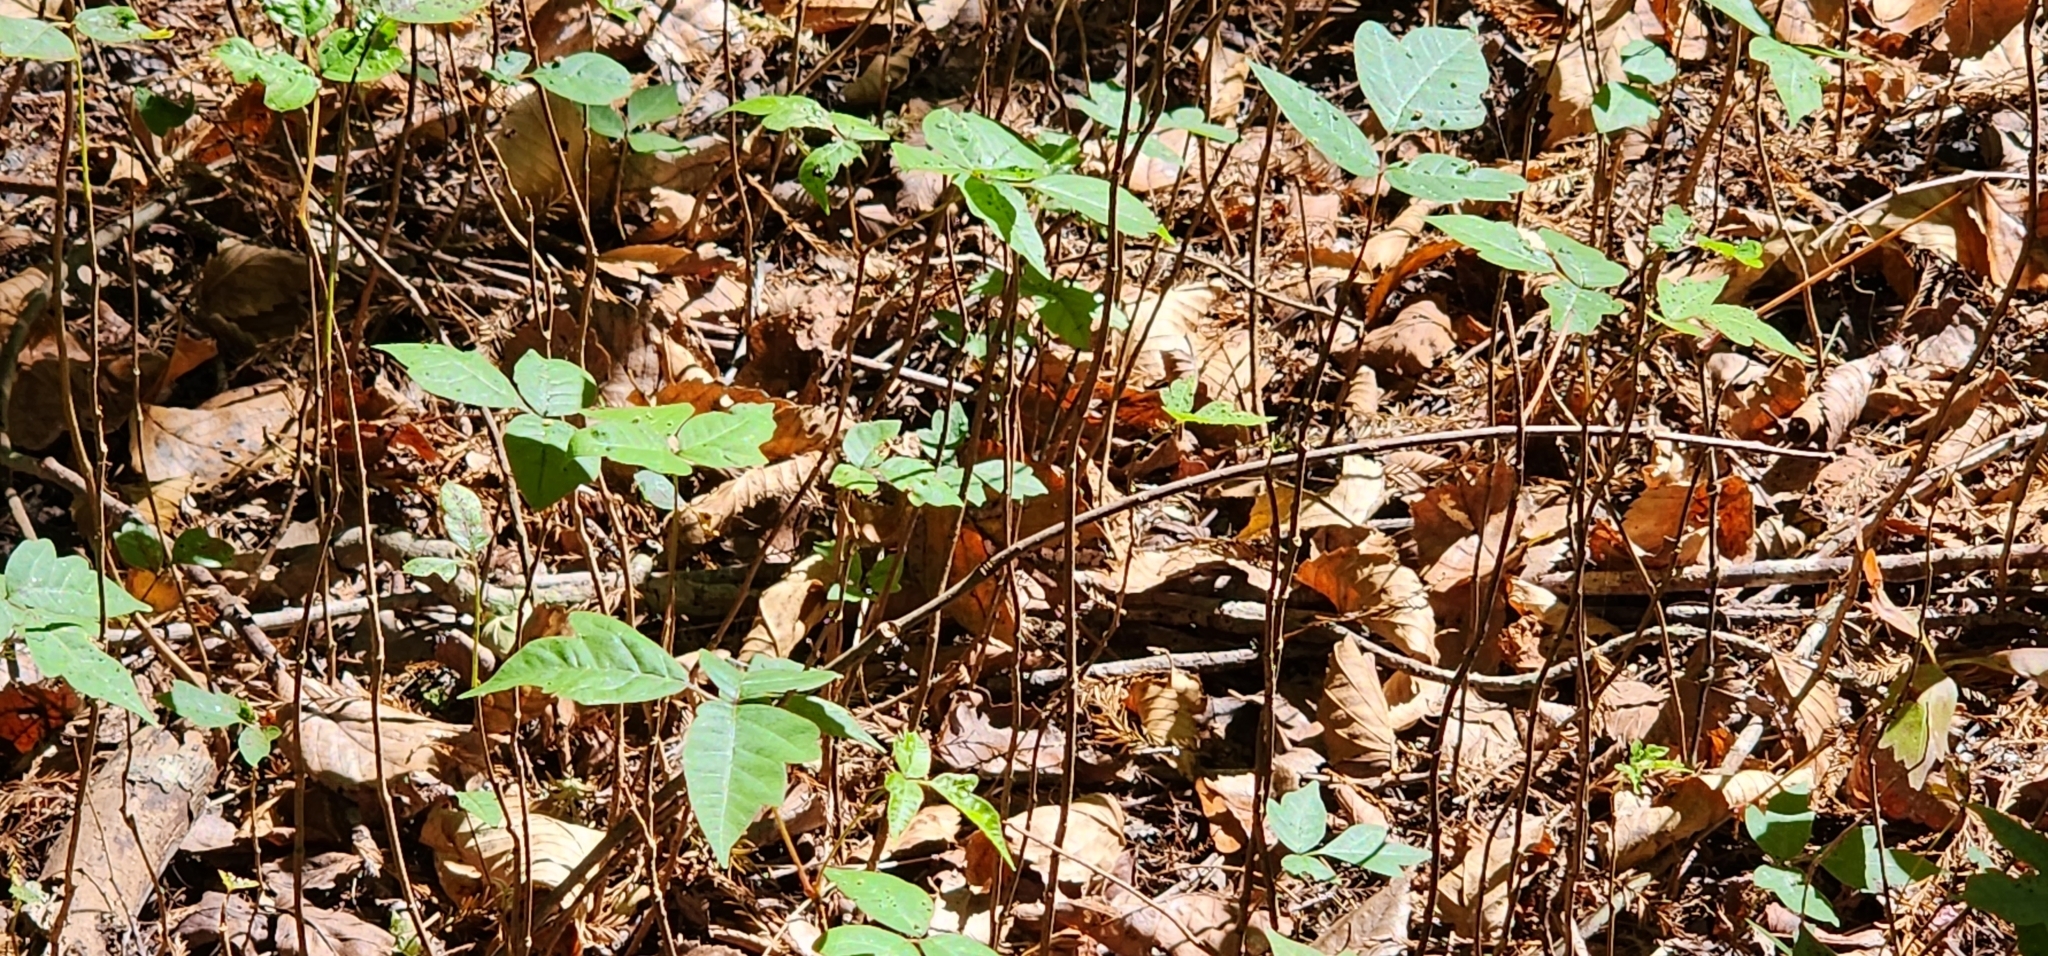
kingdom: Plantae
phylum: Tracheophyta
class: Magnoliopsida
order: Sapindales
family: Anacardiaceae
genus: Toxicodendron
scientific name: Toxicodendron radicans
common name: Poison ivy
